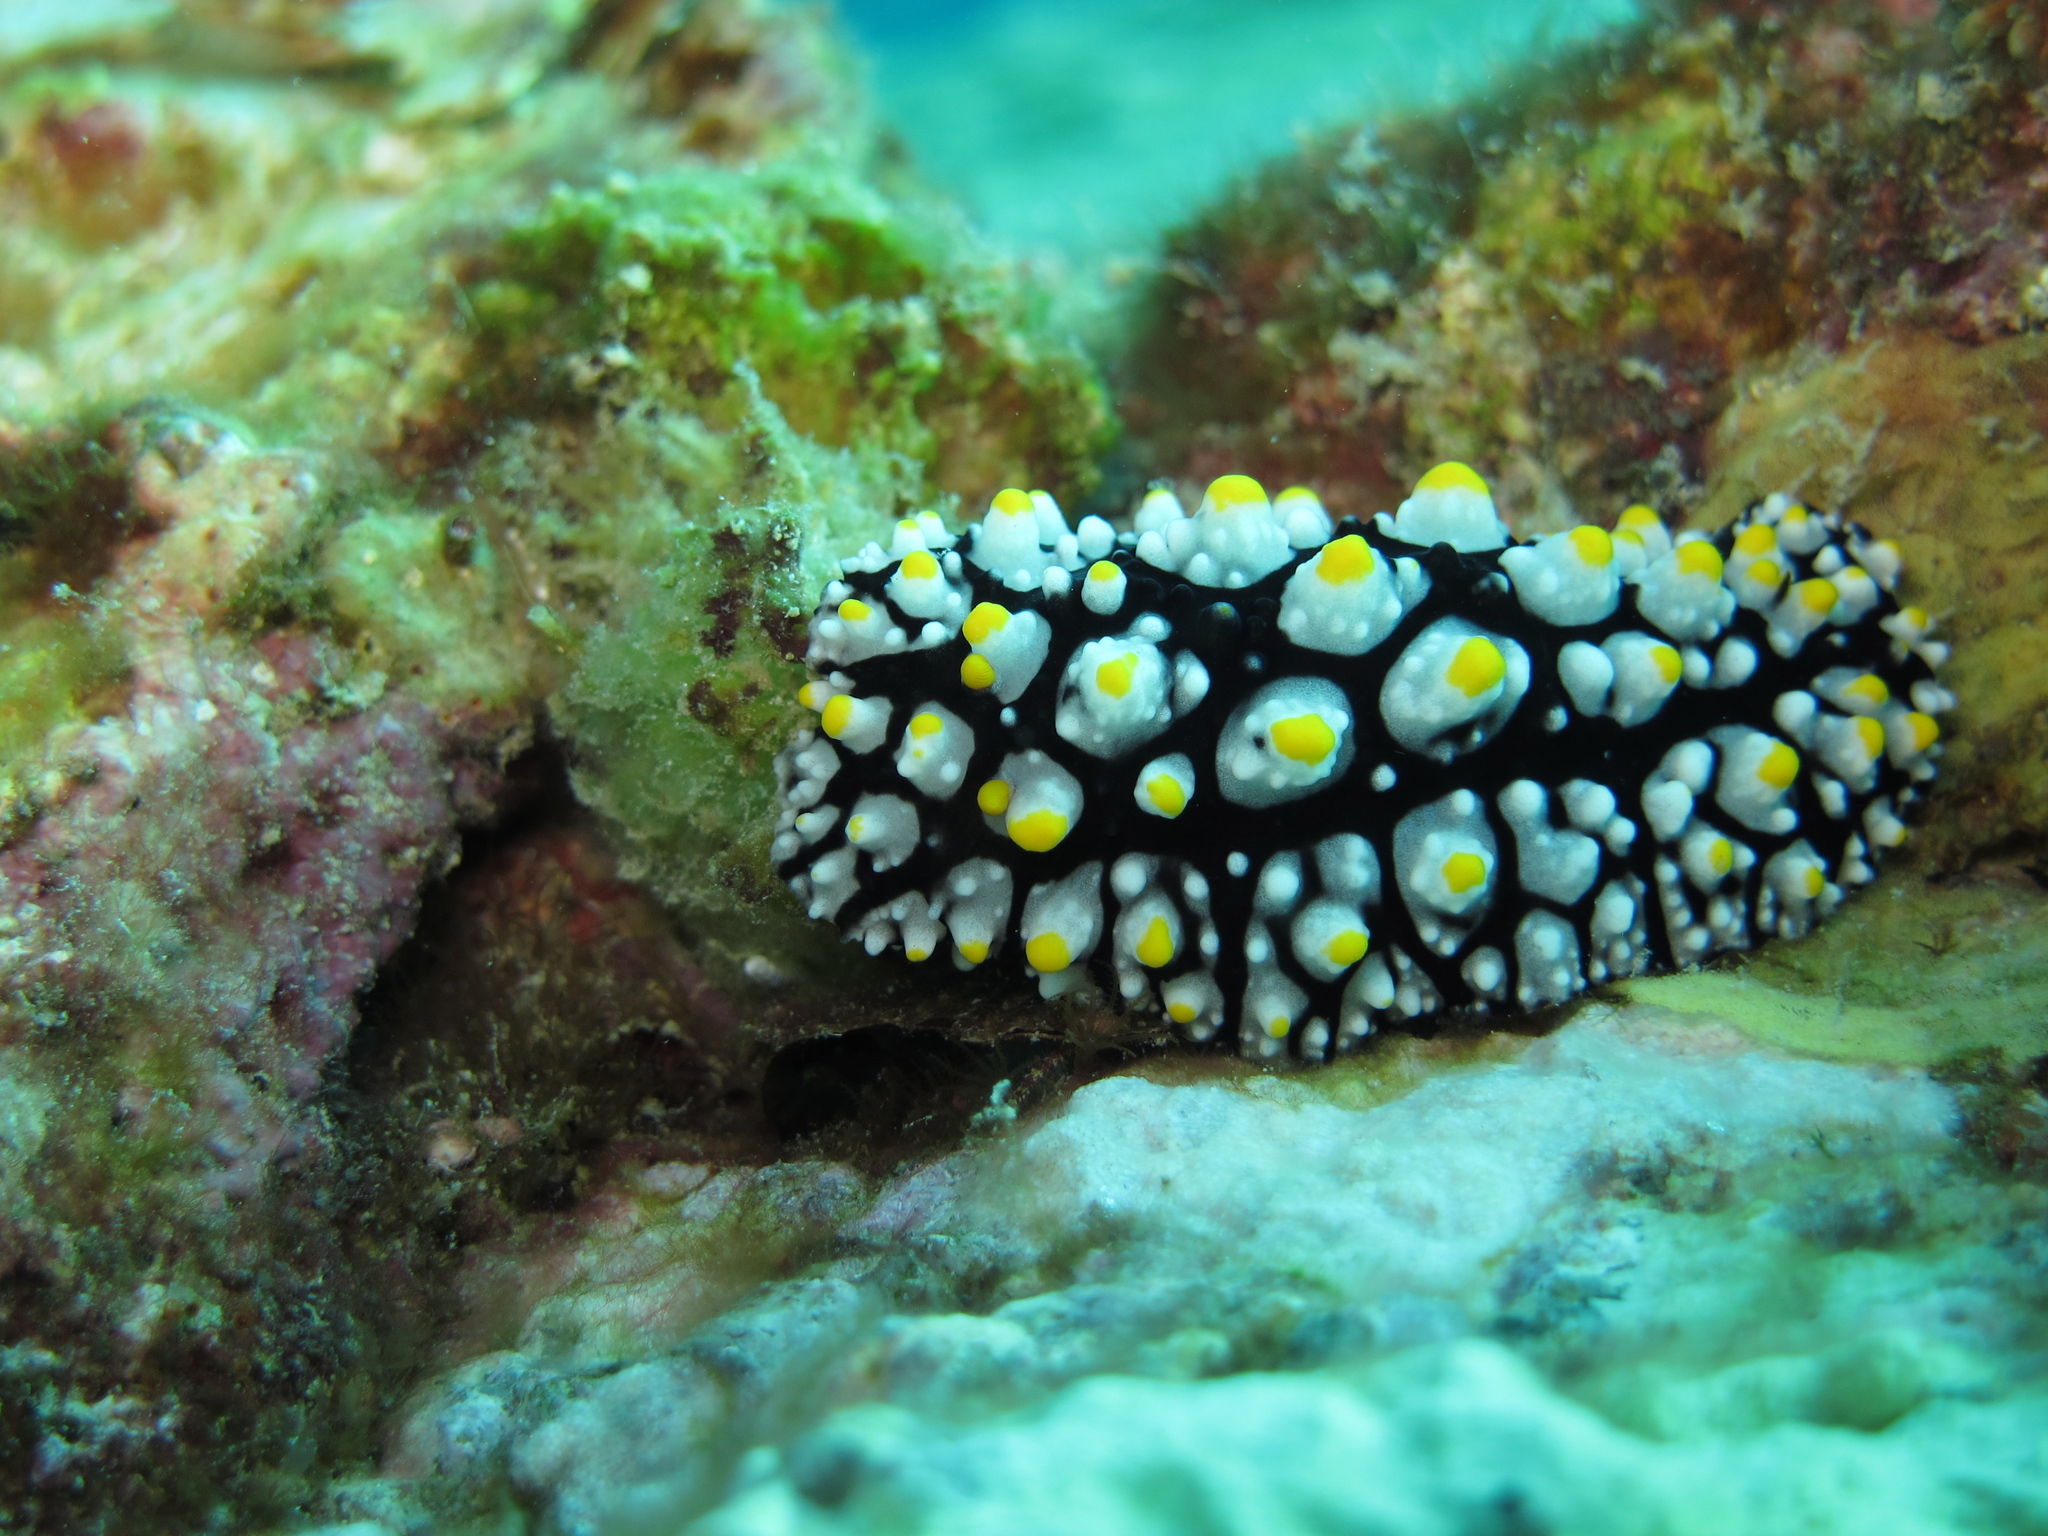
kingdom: Animalia
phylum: Mollusca
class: Gastropoda
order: Nudibranchia
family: Phyllidiidae
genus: Phyllidia
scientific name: Phyllidia elegans
